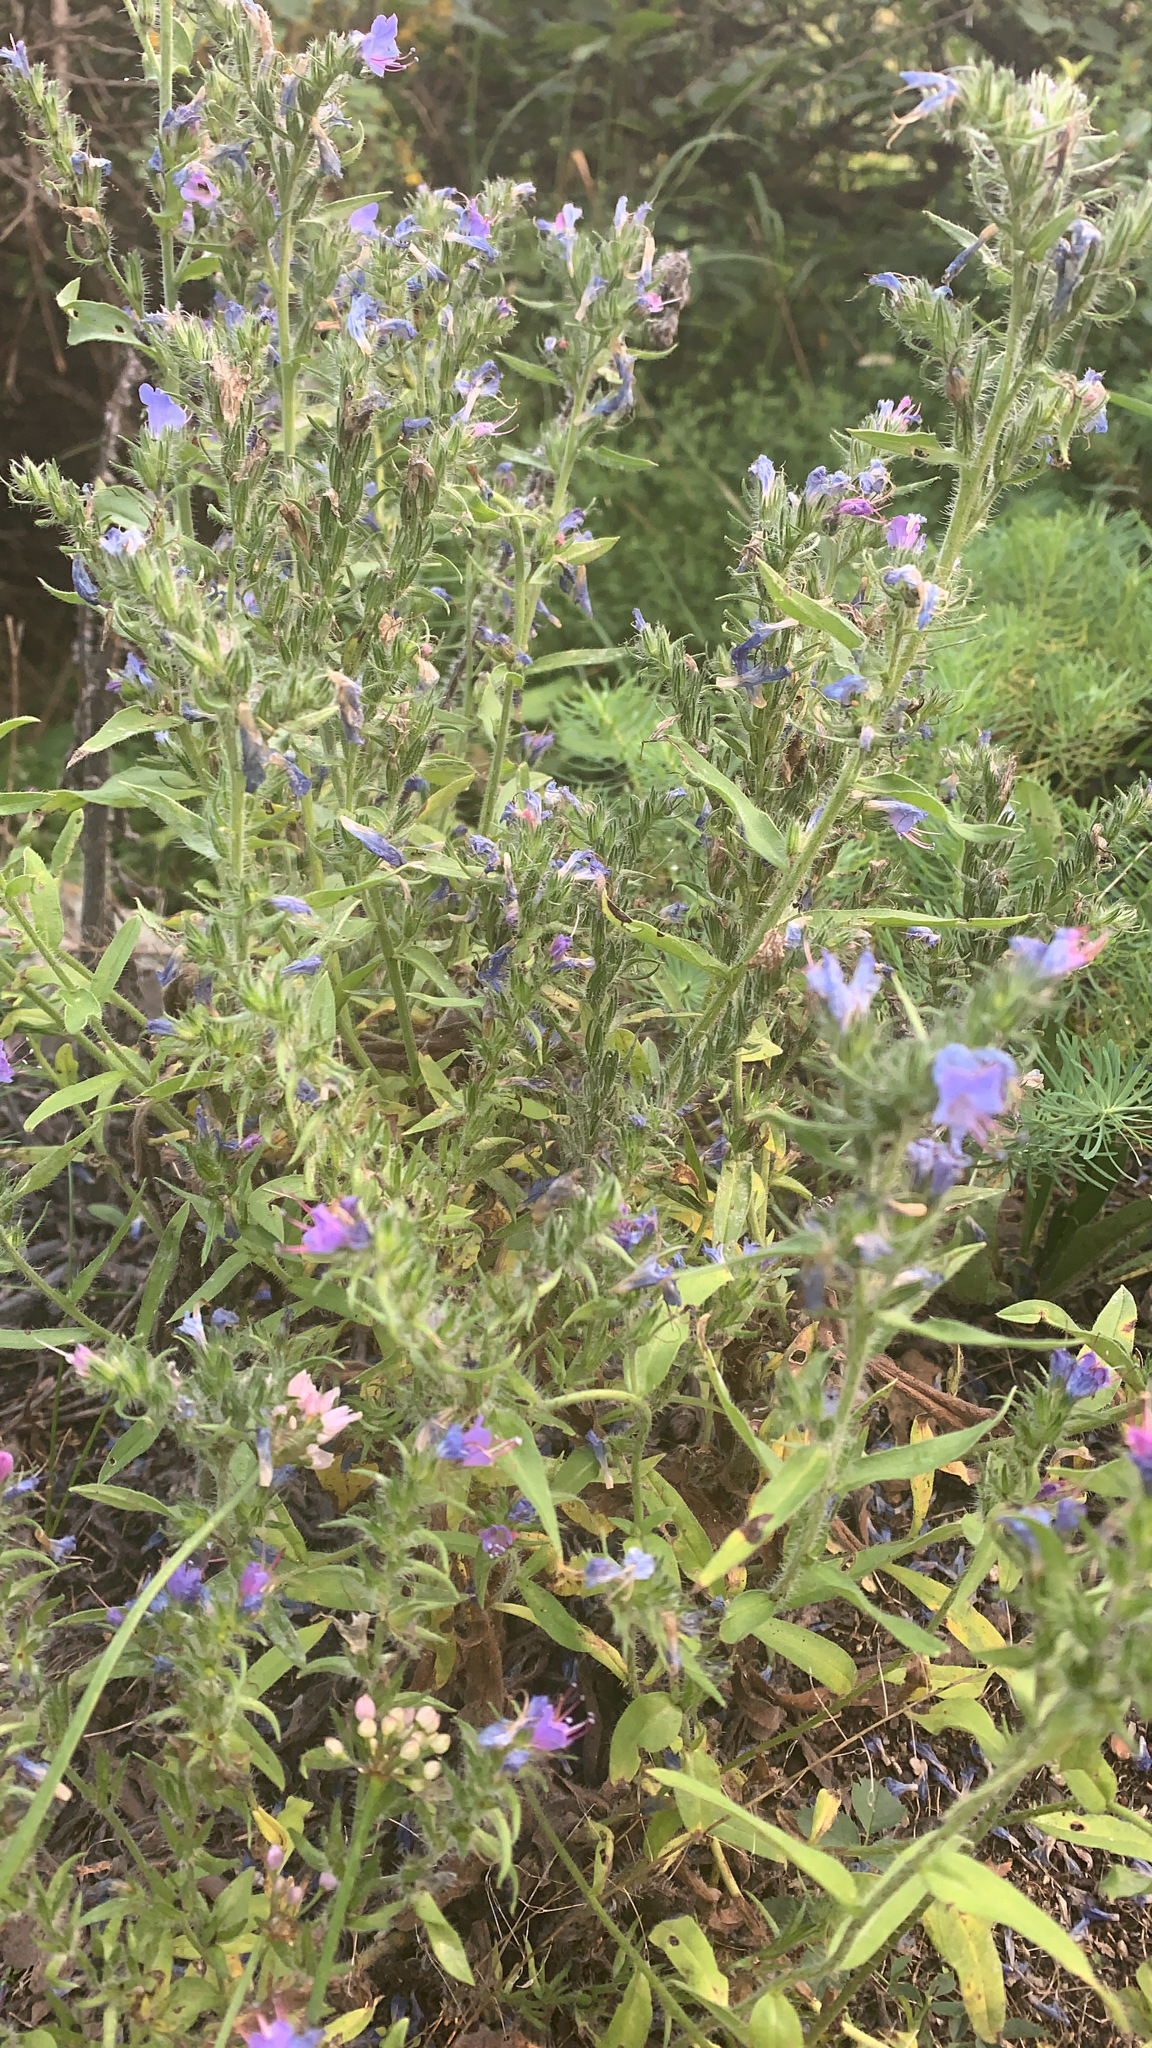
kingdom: Plantae
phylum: Tracheophyta
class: Magnoliopsida
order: Boraginales
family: Boraginaceae
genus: Echium
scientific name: Echium vulgare
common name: Common viper's bugloss
